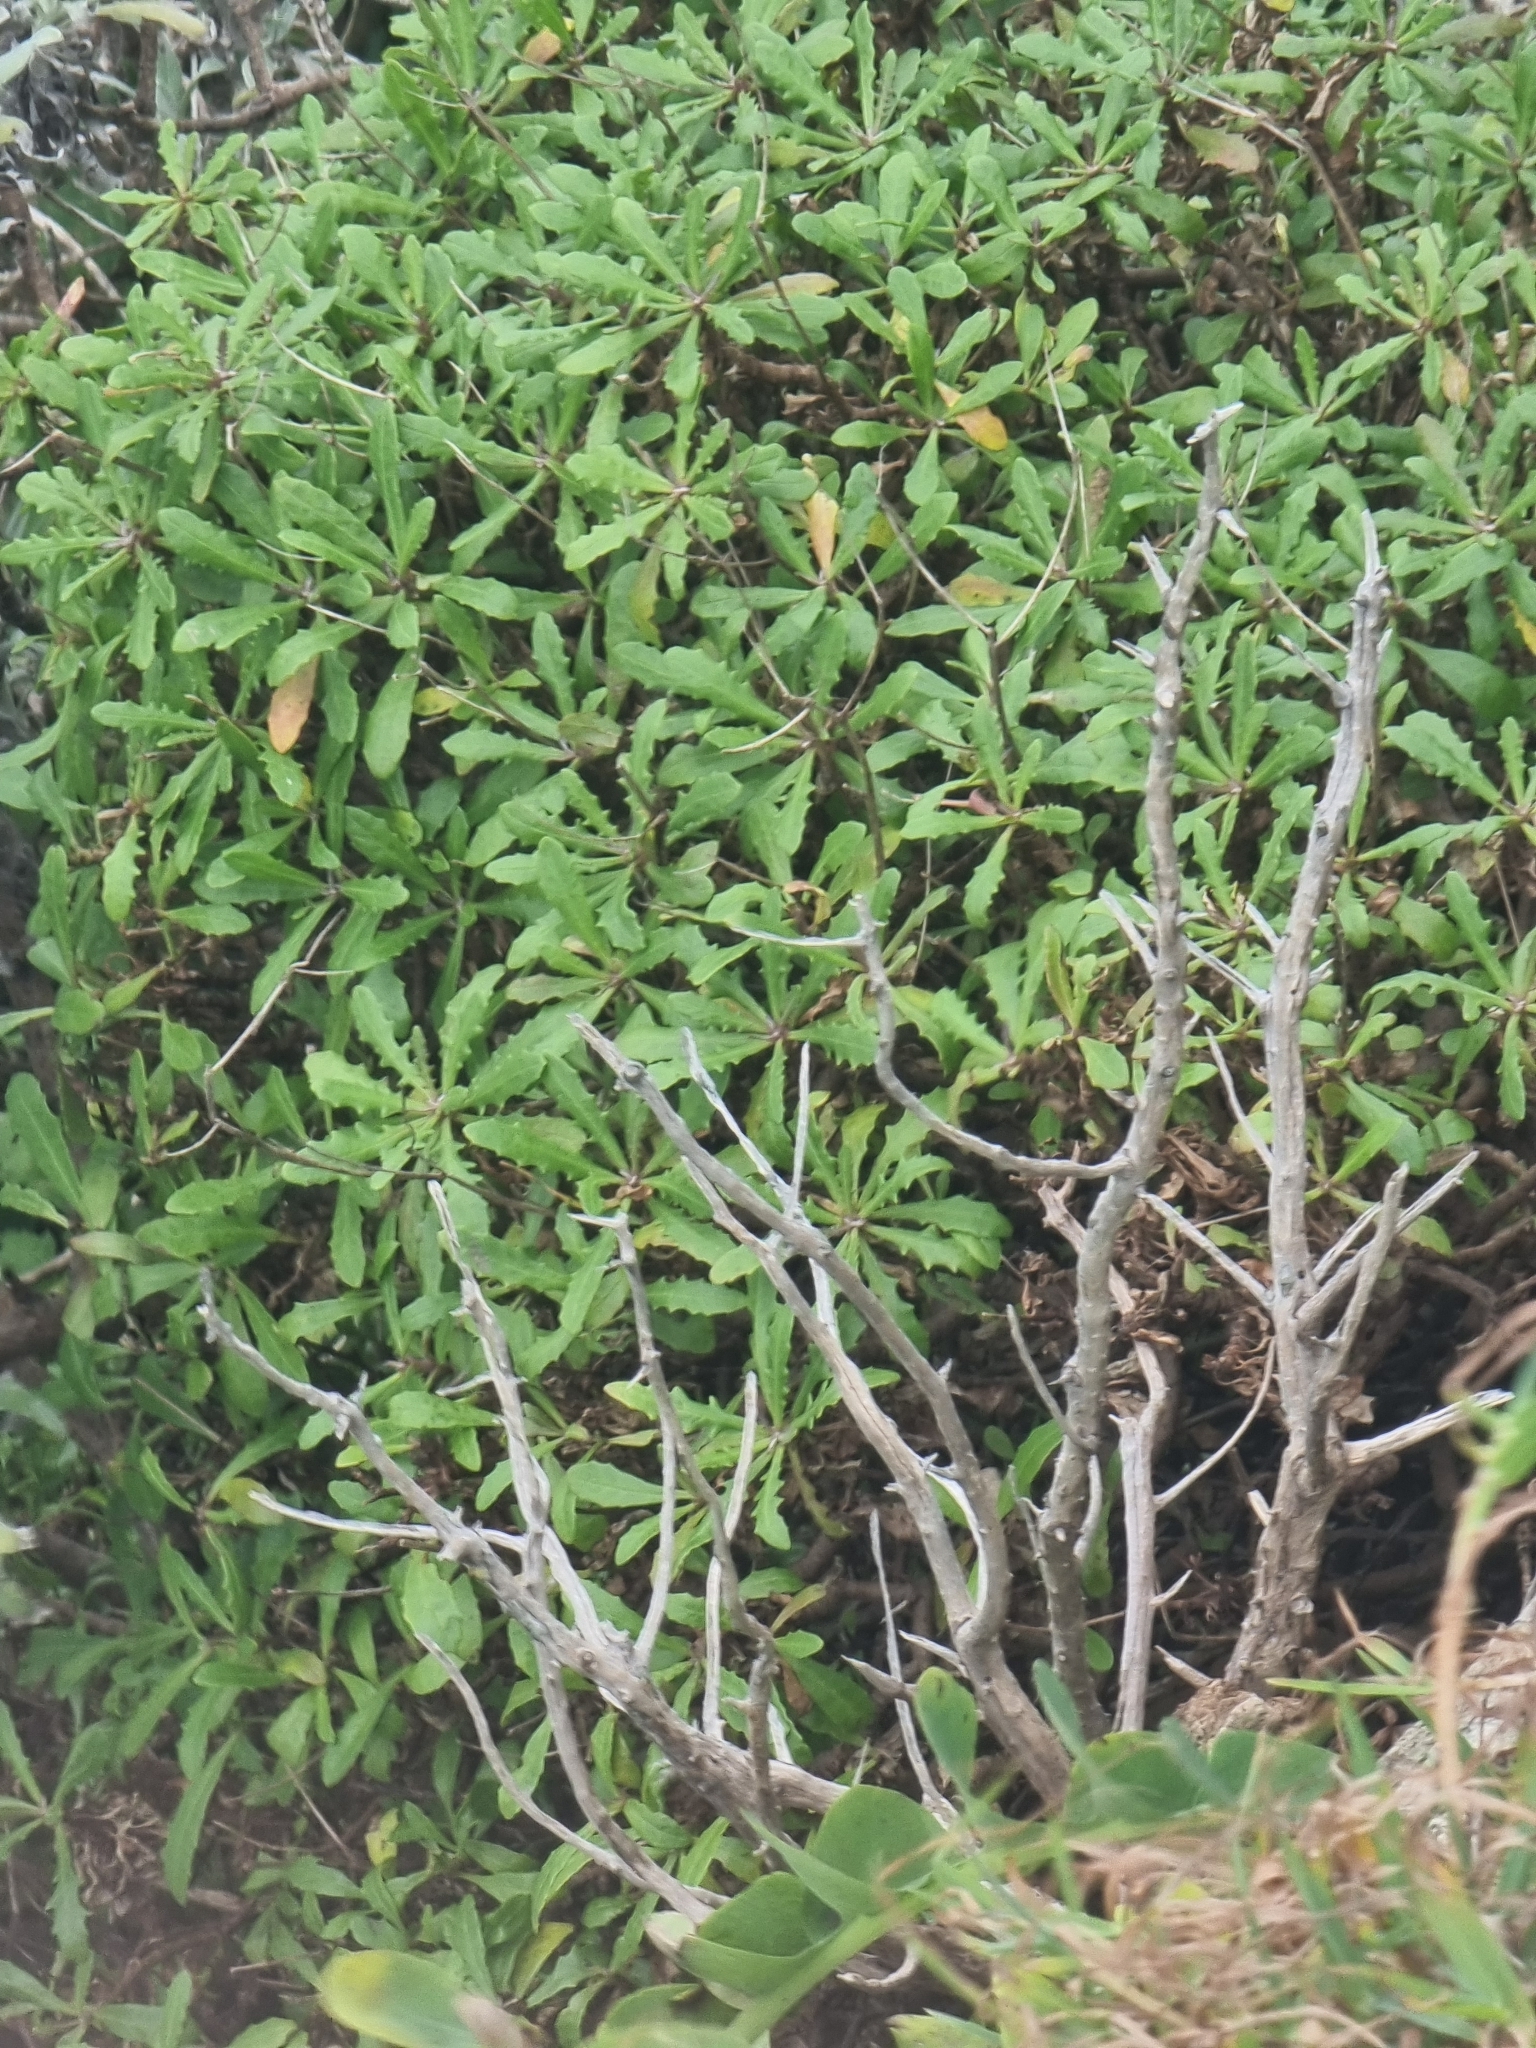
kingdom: Plantae
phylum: Tracheophyta
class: Magnoliopsida
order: Asterales
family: Asteraceae
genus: Tolpis
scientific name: Tolpis succulenta
